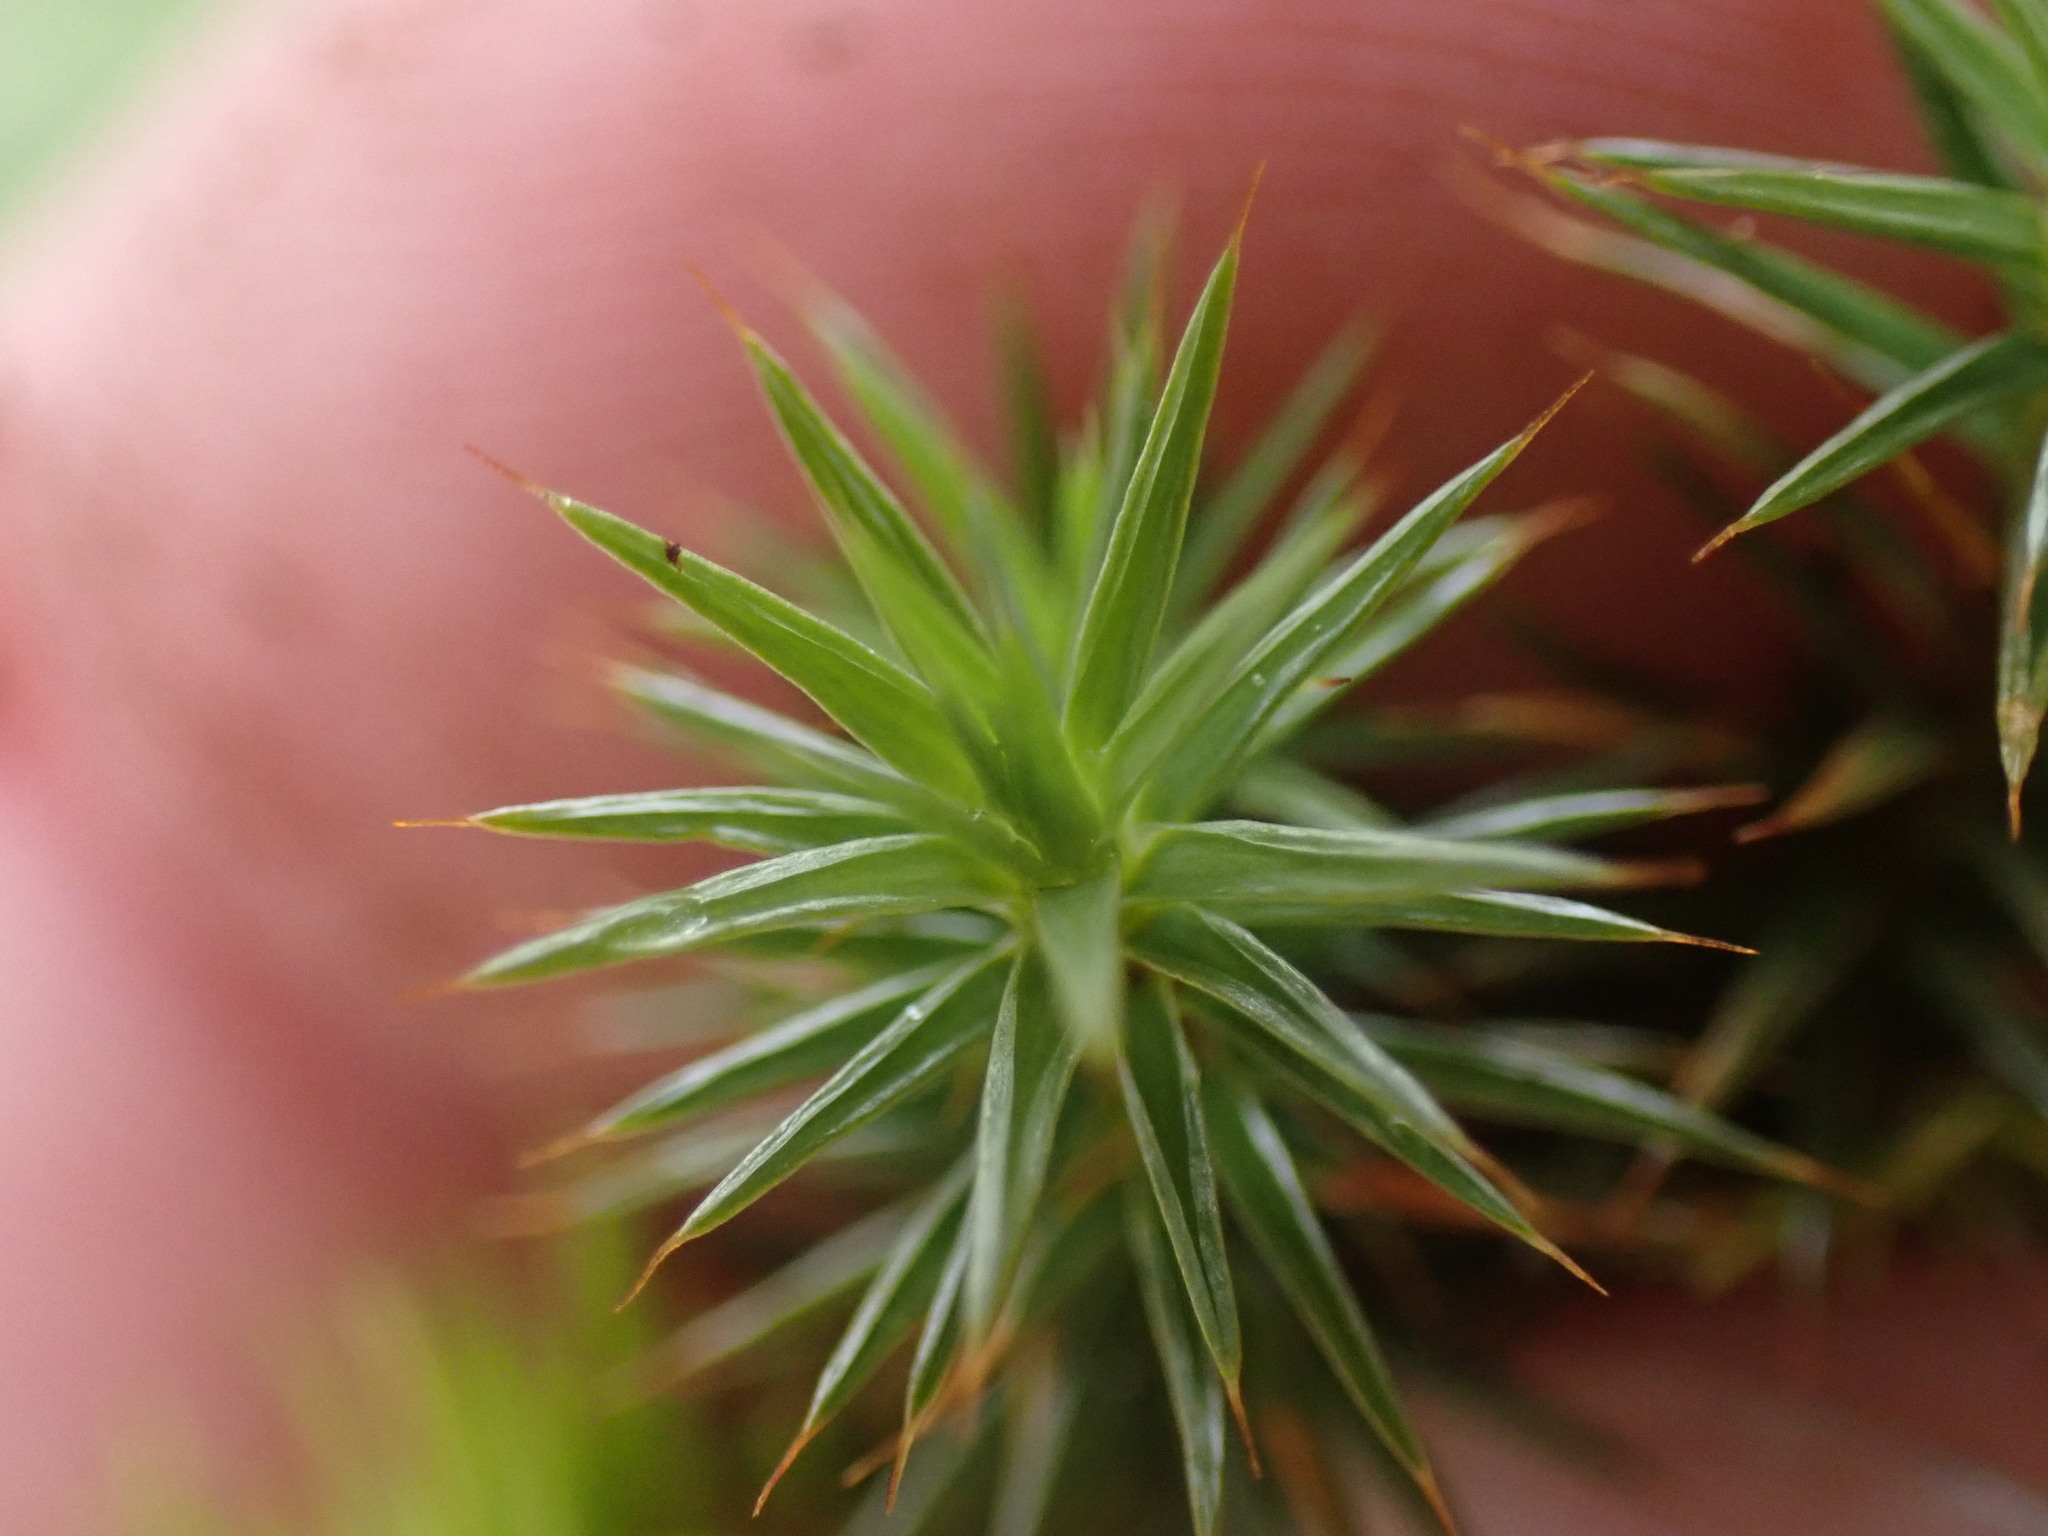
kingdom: Plantae
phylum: Bryophyta
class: Polytrichopsida
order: Polytrichales
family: Polytrichaceae
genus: Polytrichum
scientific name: Polytrichum juniperinum
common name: Juniper haircap moss
